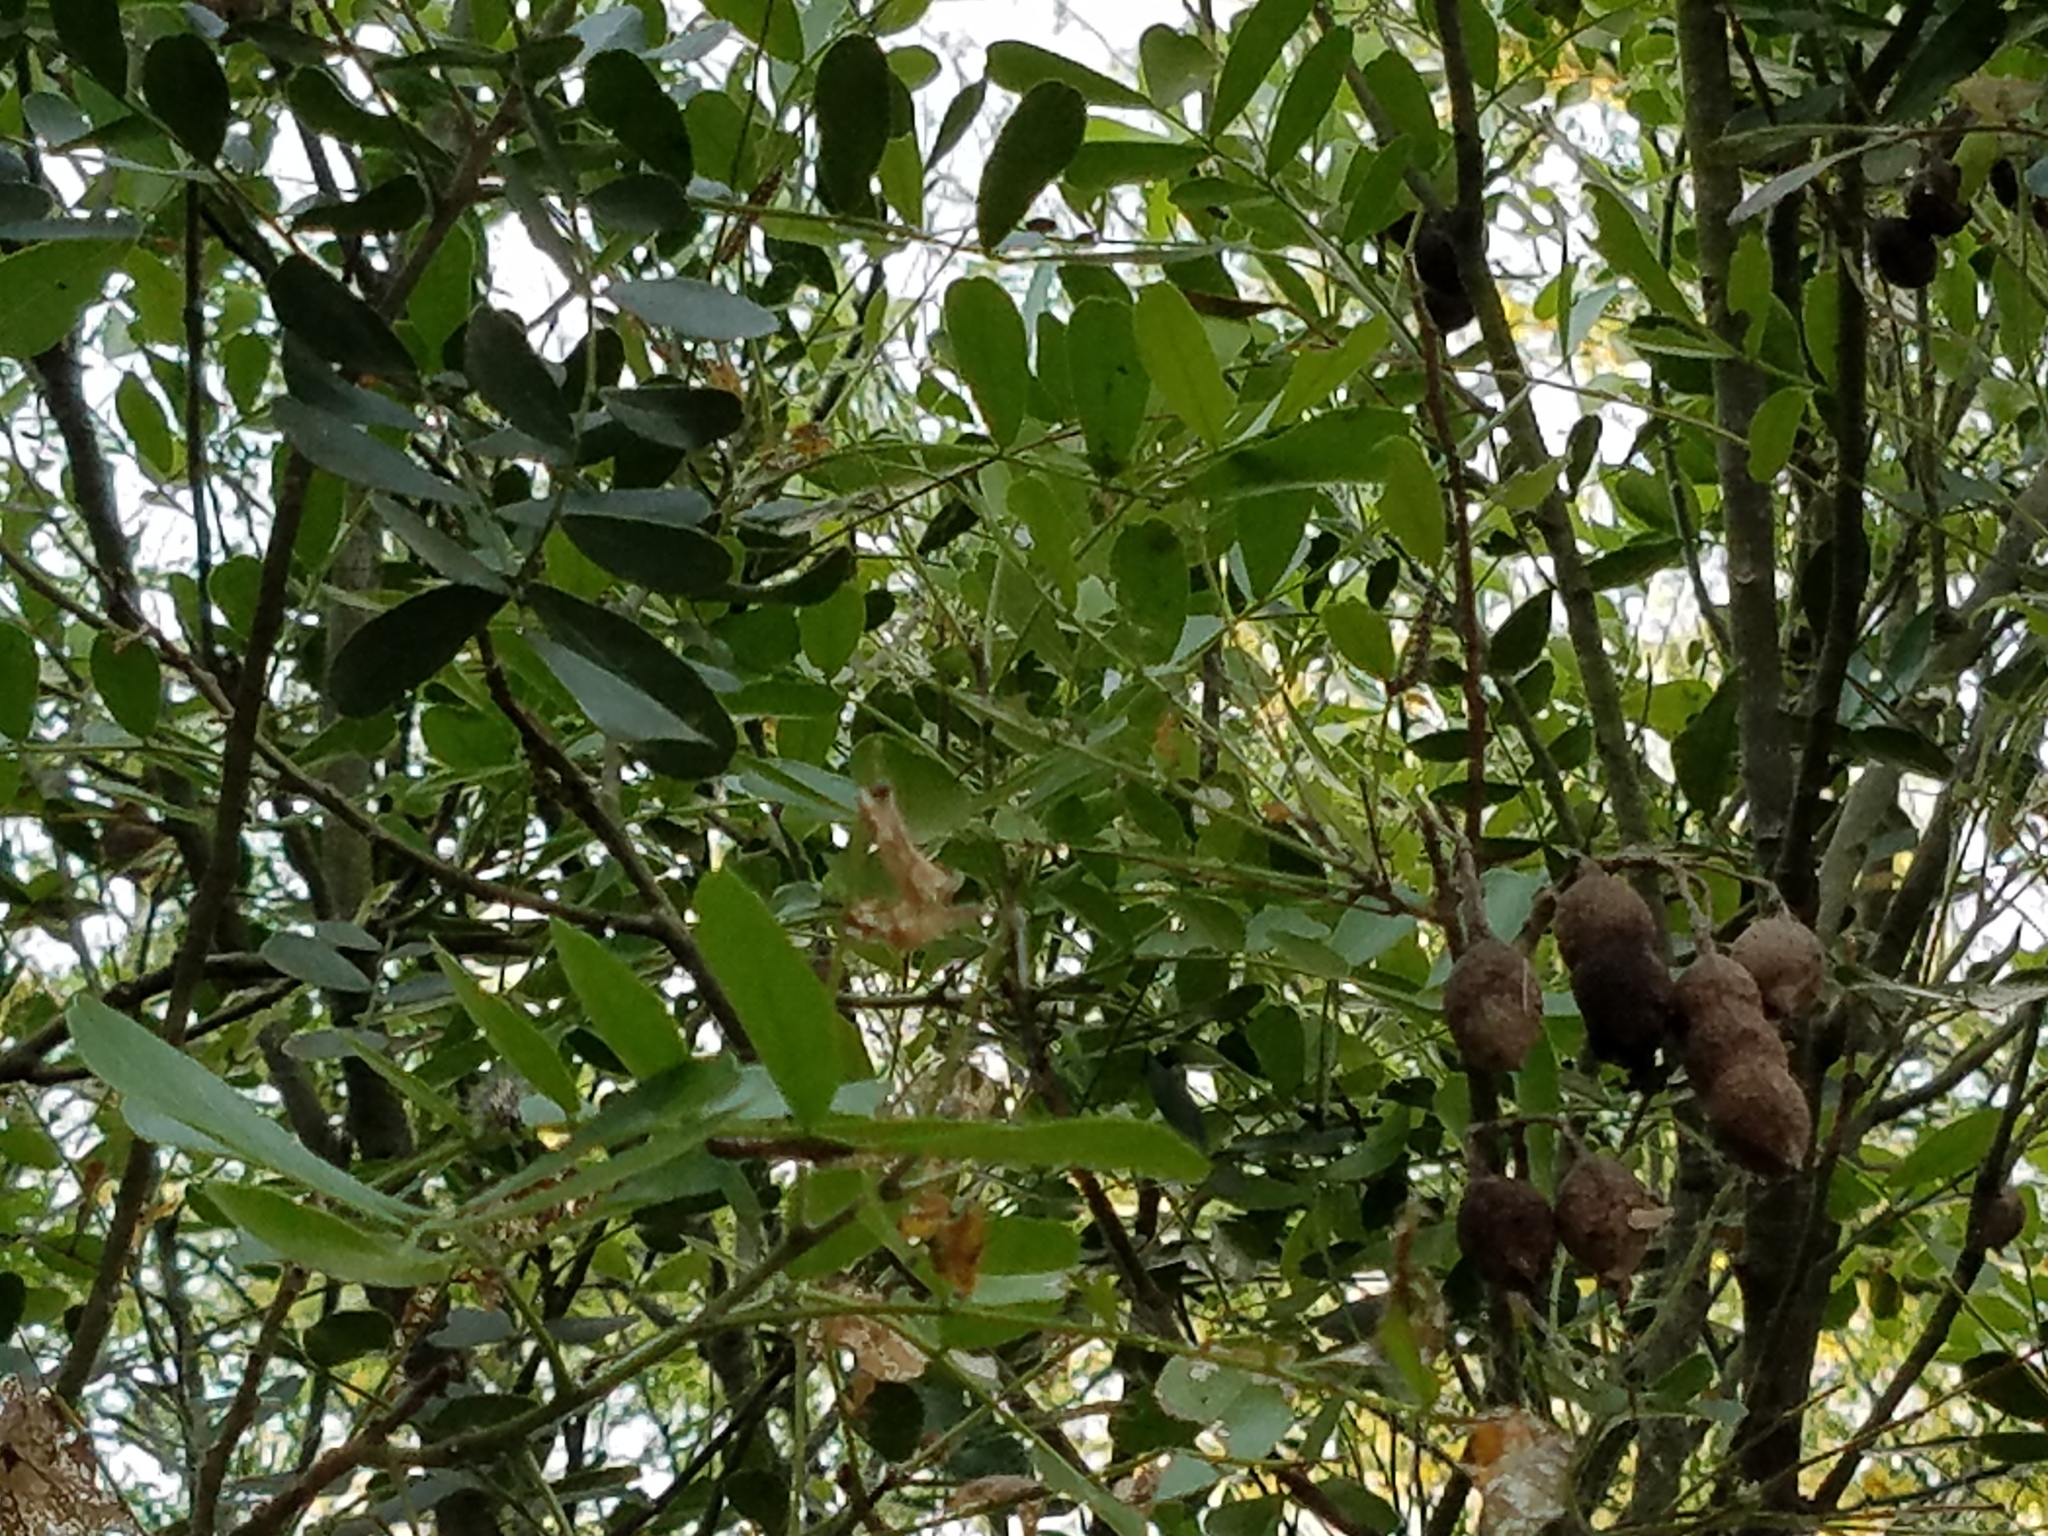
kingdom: Plantae
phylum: Tracheophyta
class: Magnoliopsida
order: Fabales
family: Fabaceae
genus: Dermatophyllum
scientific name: Dermatophyllum secundiflorum
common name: Texas-mountain-laurel
